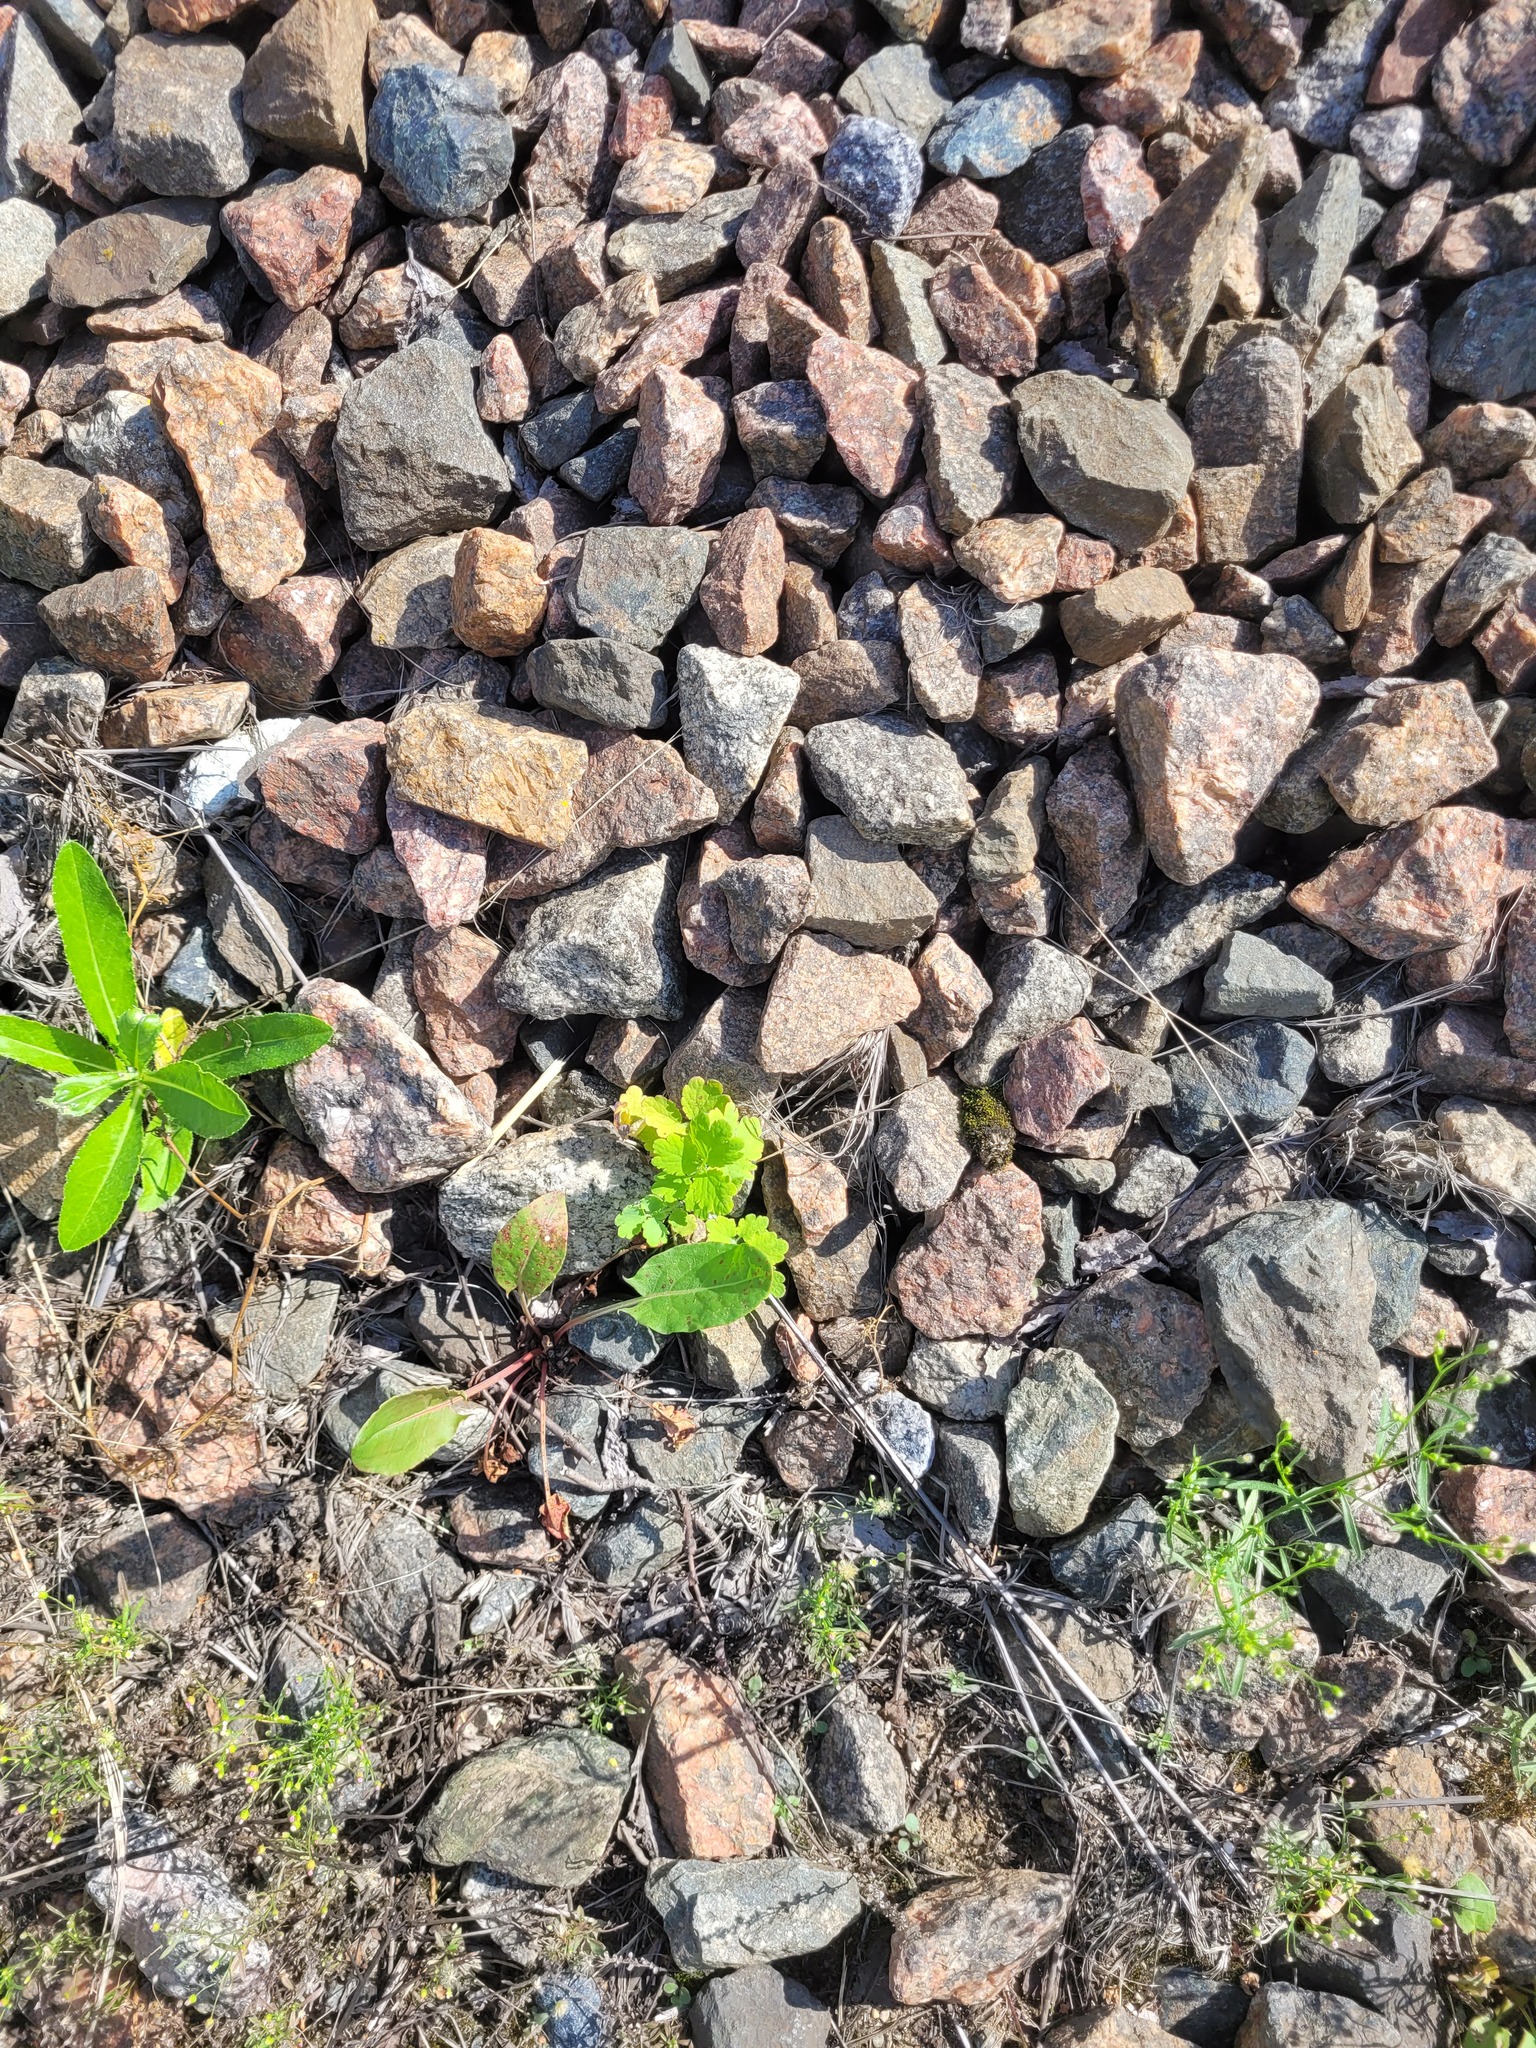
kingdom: Plantae
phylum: Tracheophyta
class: Magnoliopsida
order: Ranunculales
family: Papaveraceae
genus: Chelidonium
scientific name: Chelidonium majus
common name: Greater celandine
